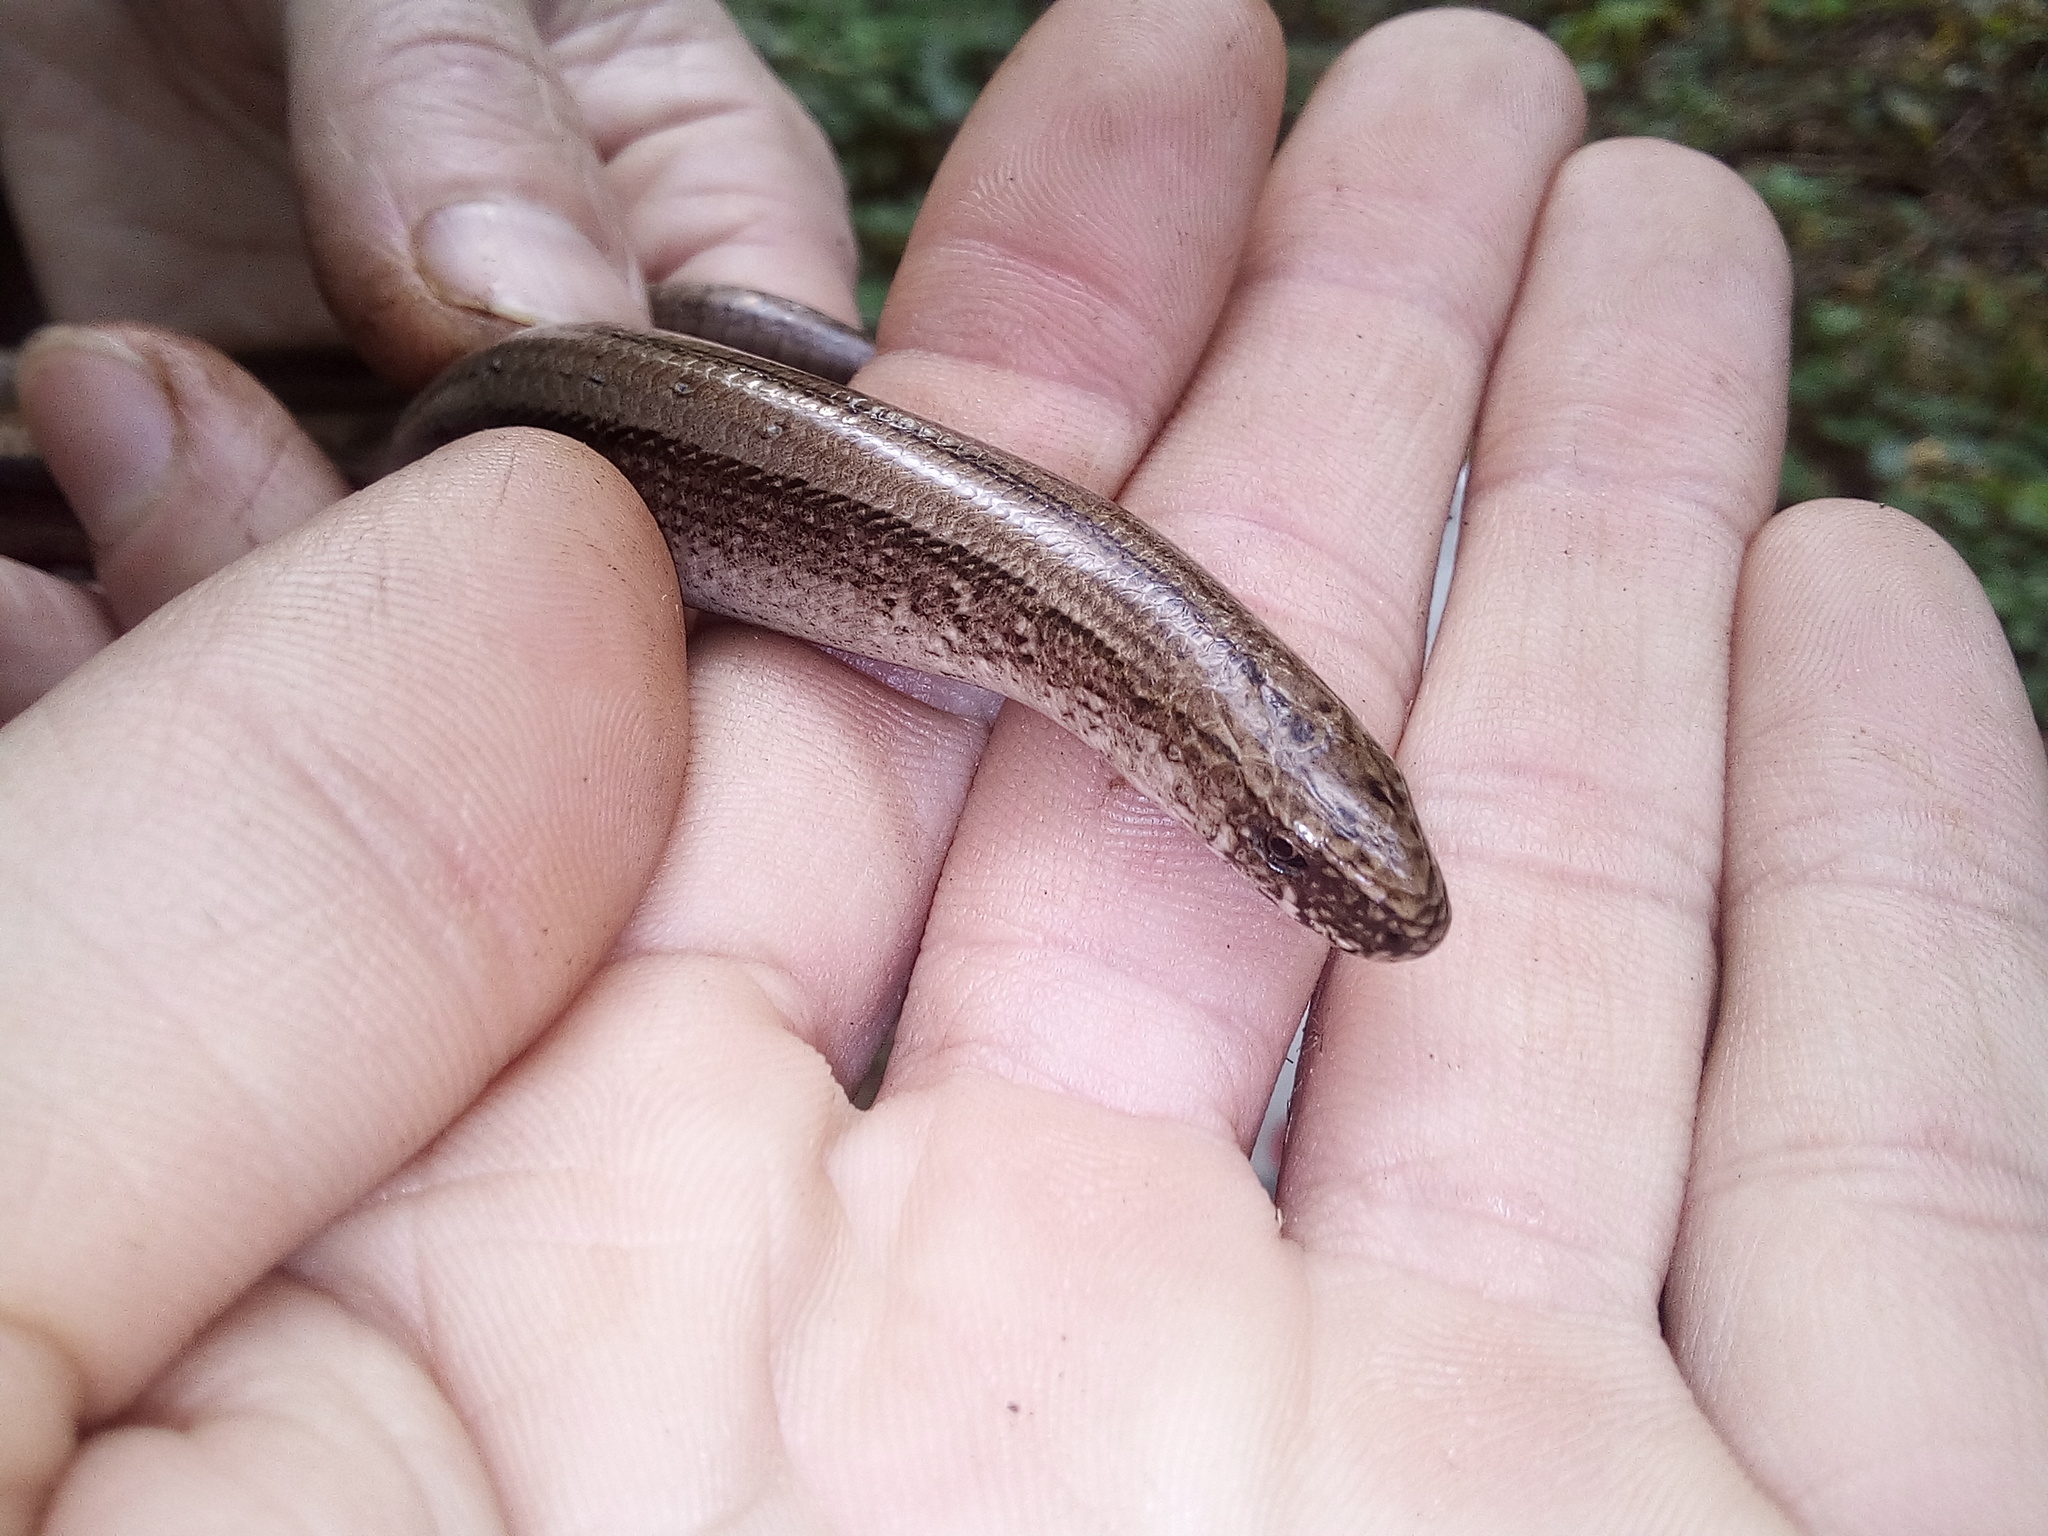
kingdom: Animalia
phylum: Chordata
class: Squamata
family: Anguidae
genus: Anguis
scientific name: Anguis colchica
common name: Slow worm
